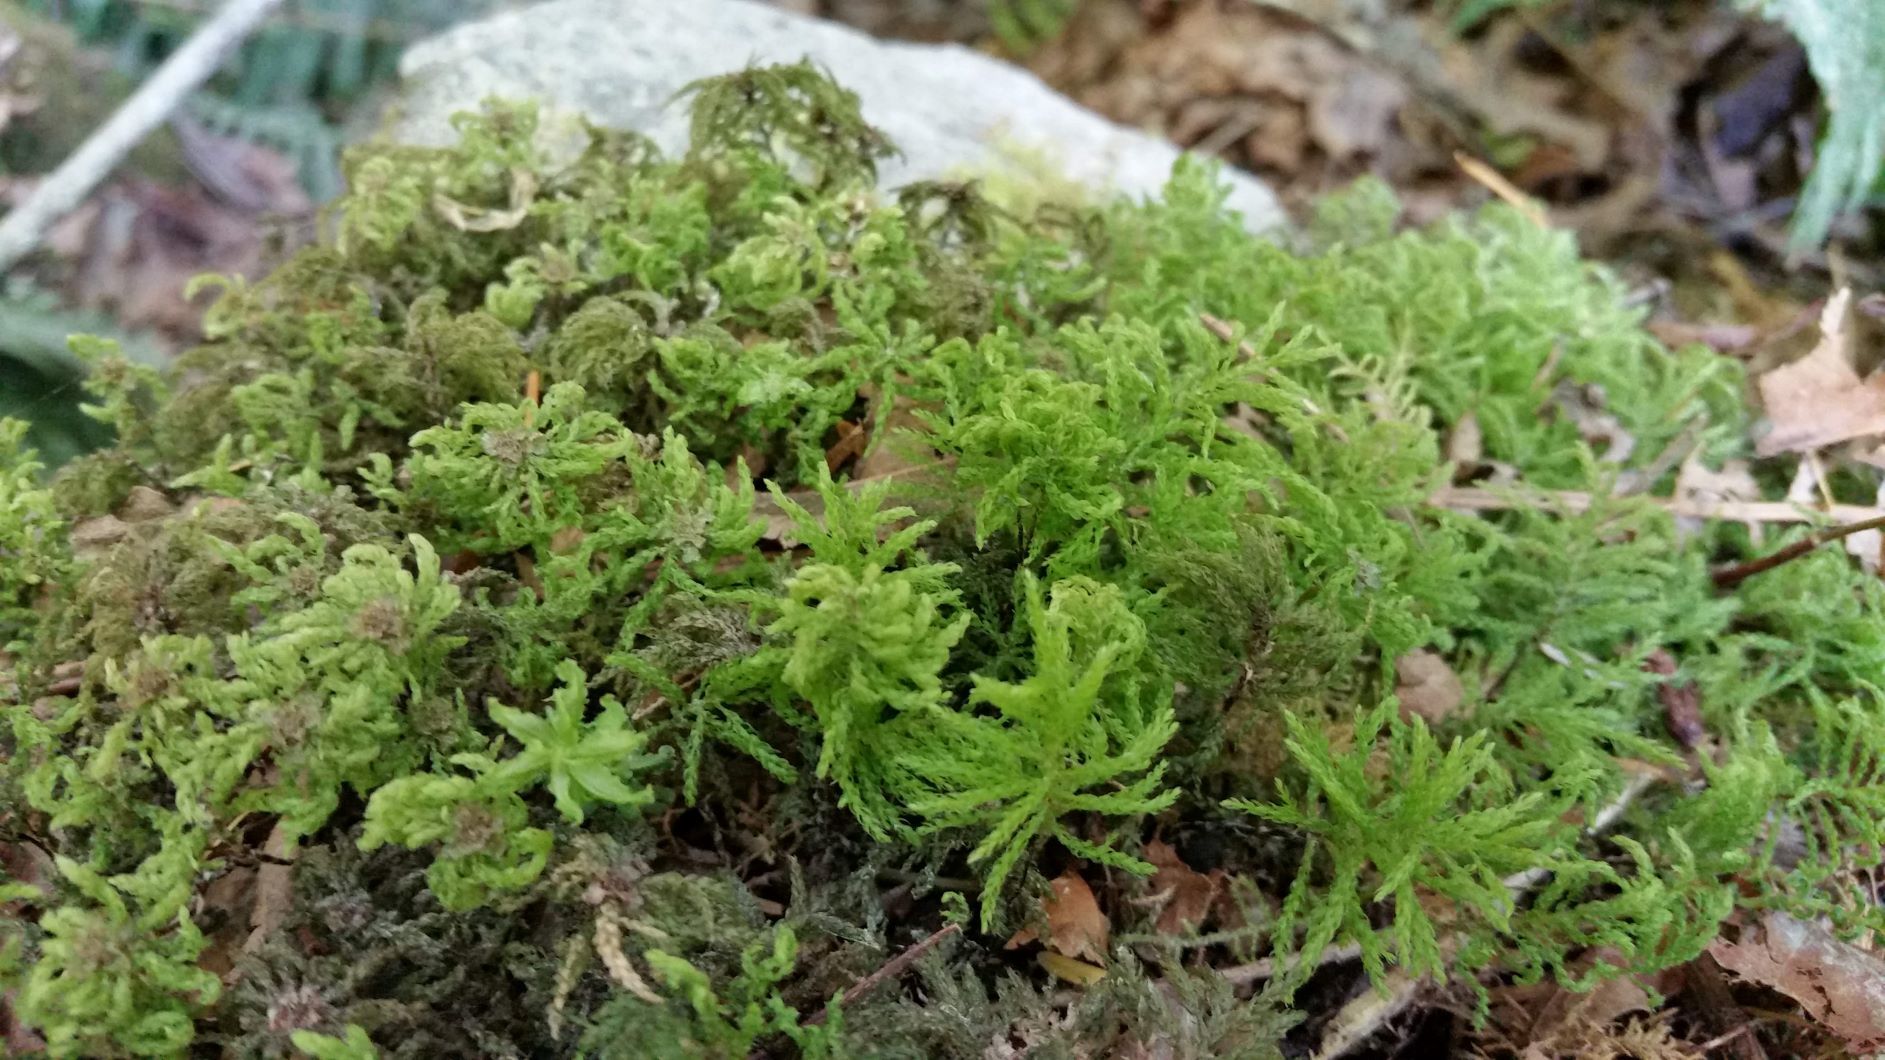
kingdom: Plantae
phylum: Bryophyta
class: Bryopsida
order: Bryales
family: Mniaceae
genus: Leucolepis
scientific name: Leucolepis acanthoneura
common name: Leucolepis umbrella moss
